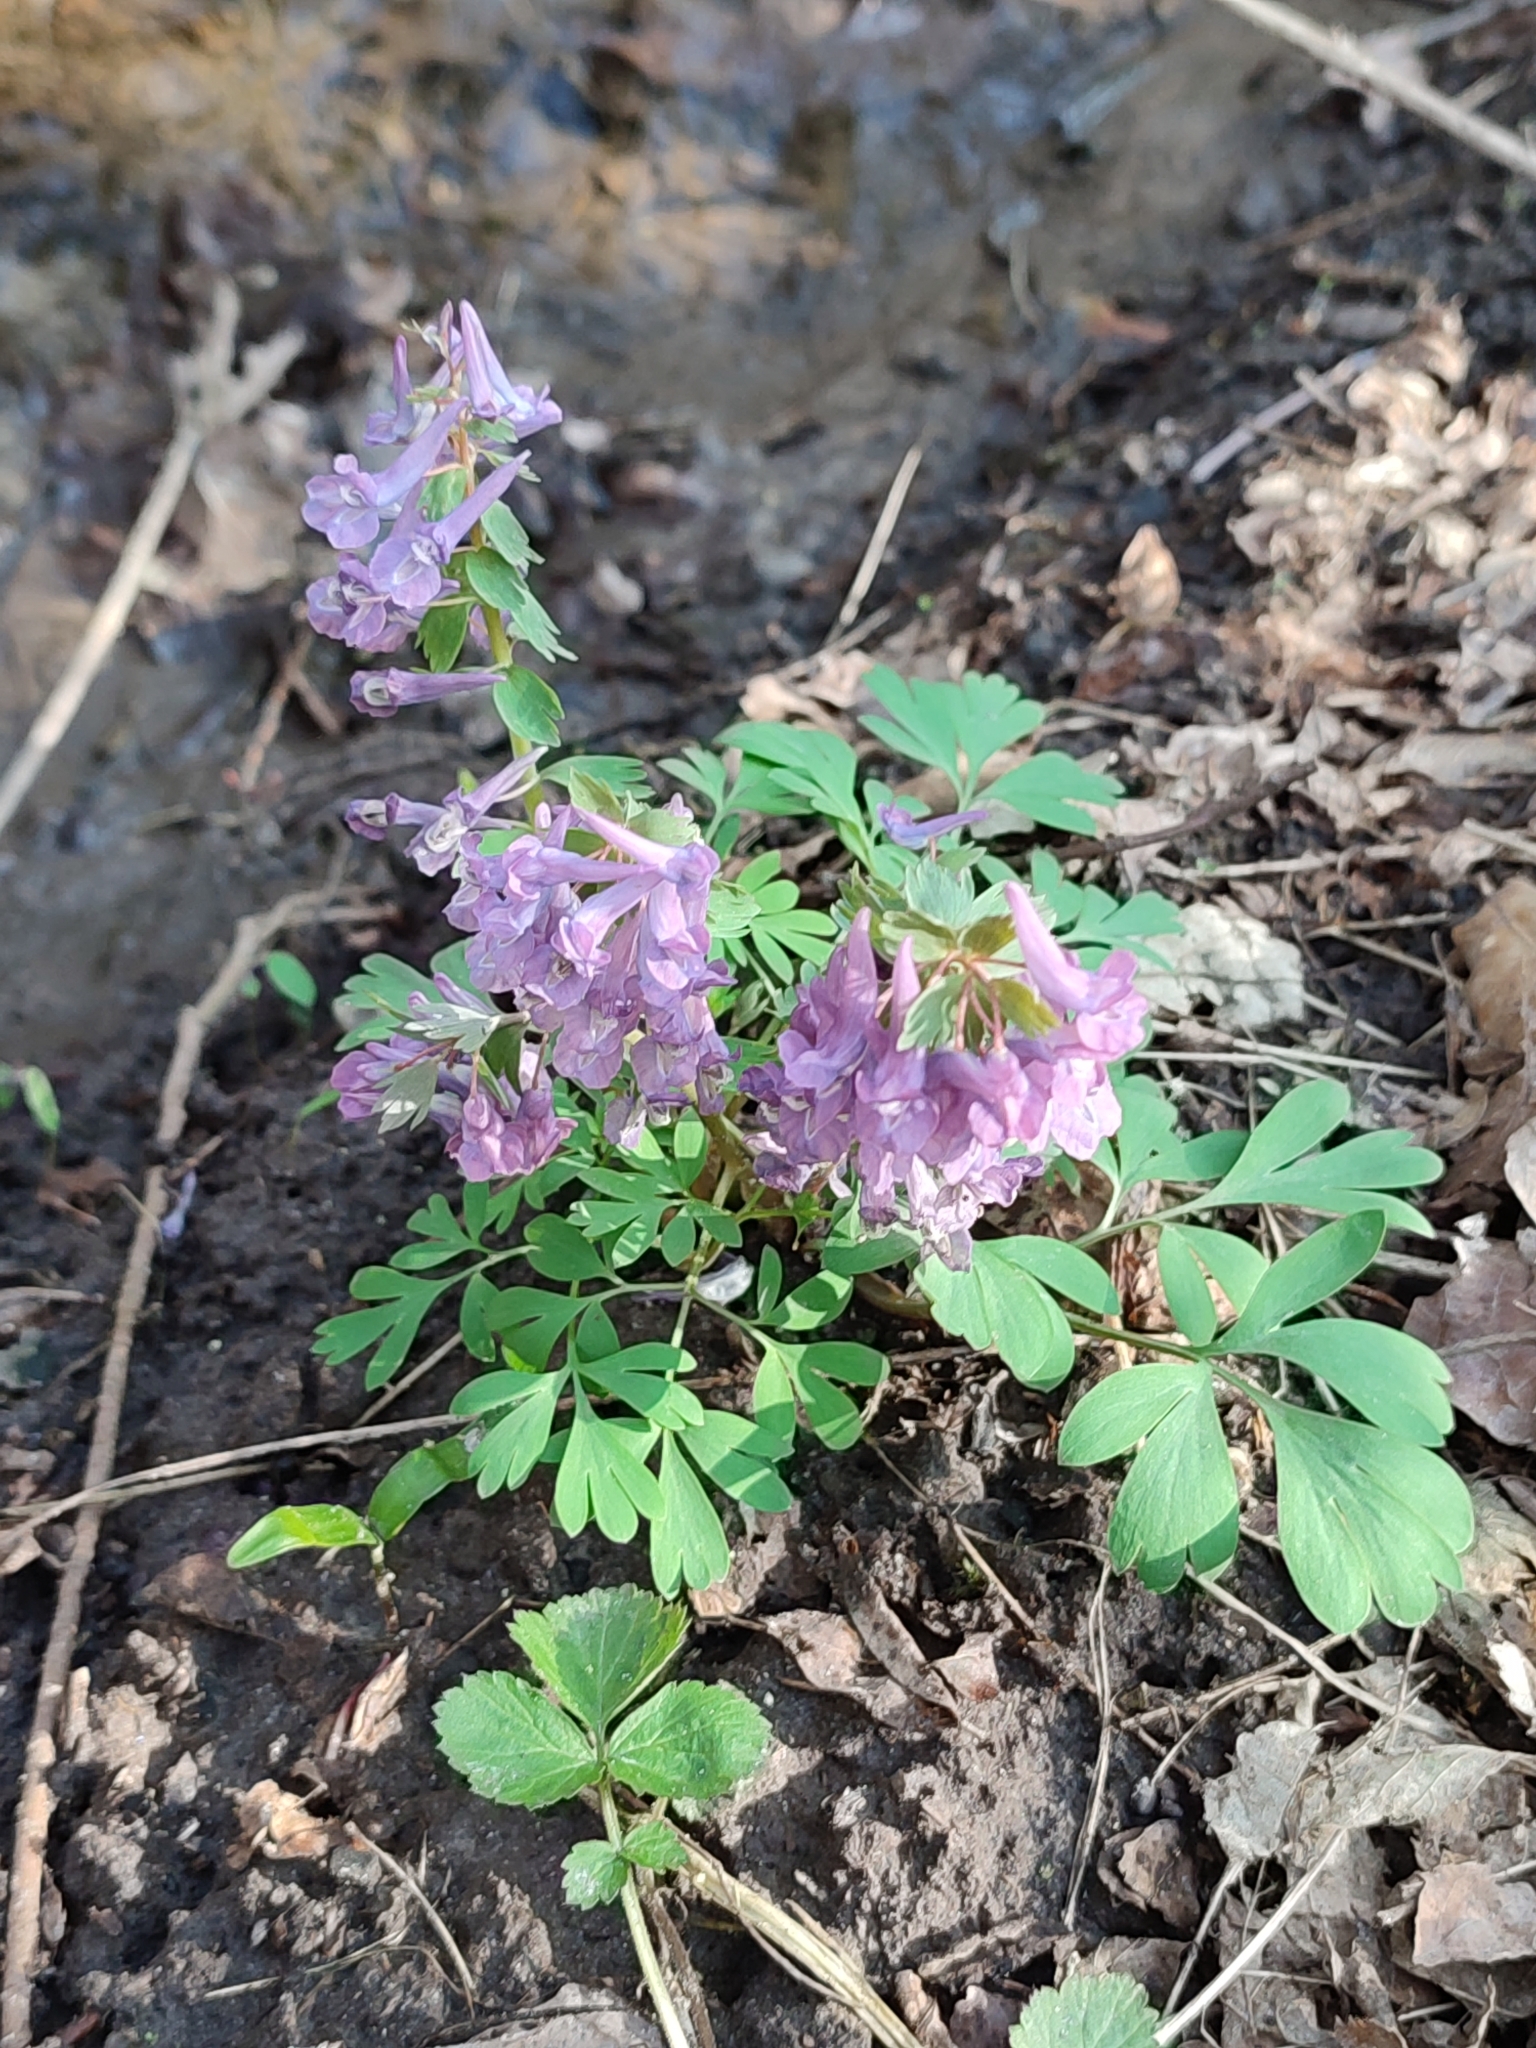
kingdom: Plantae
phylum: Tracheophyta
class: Magnoliopsida
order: Ranunculales
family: Papaveraceae
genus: Corydalis
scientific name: Corydalis solida
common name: Bird-in-a-bush
